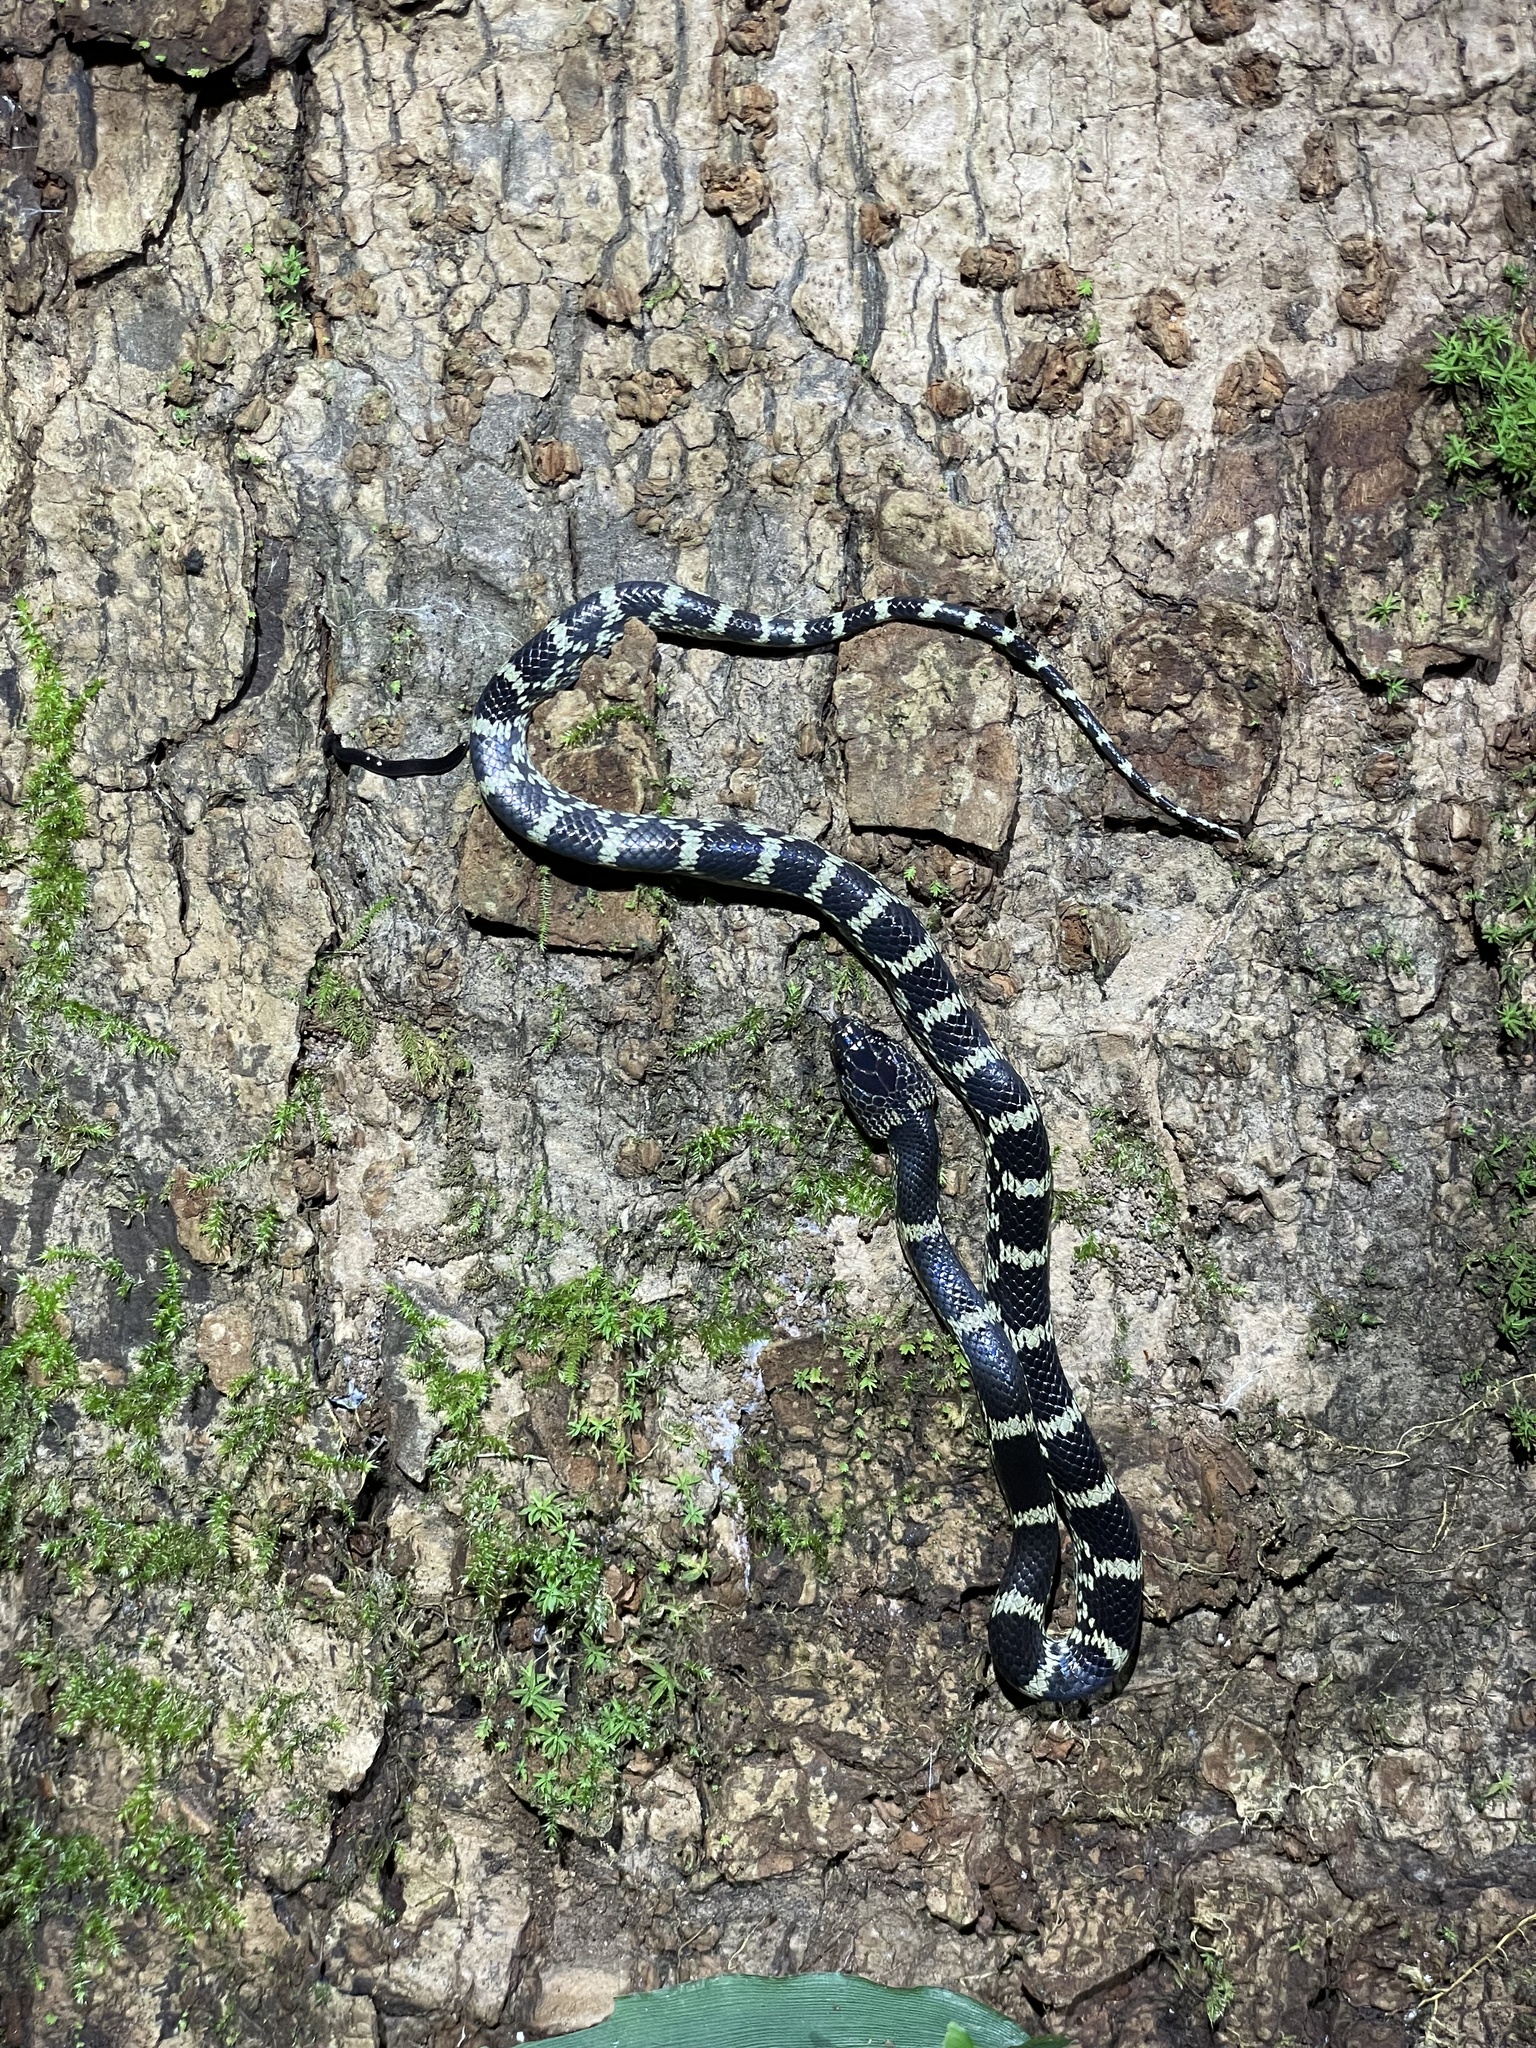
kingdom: Animalia
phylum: Chordata
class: Squamata
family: Colubridae
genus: Lycodon
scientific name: Lycodon travancoricus
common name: Travancore wolf snake
